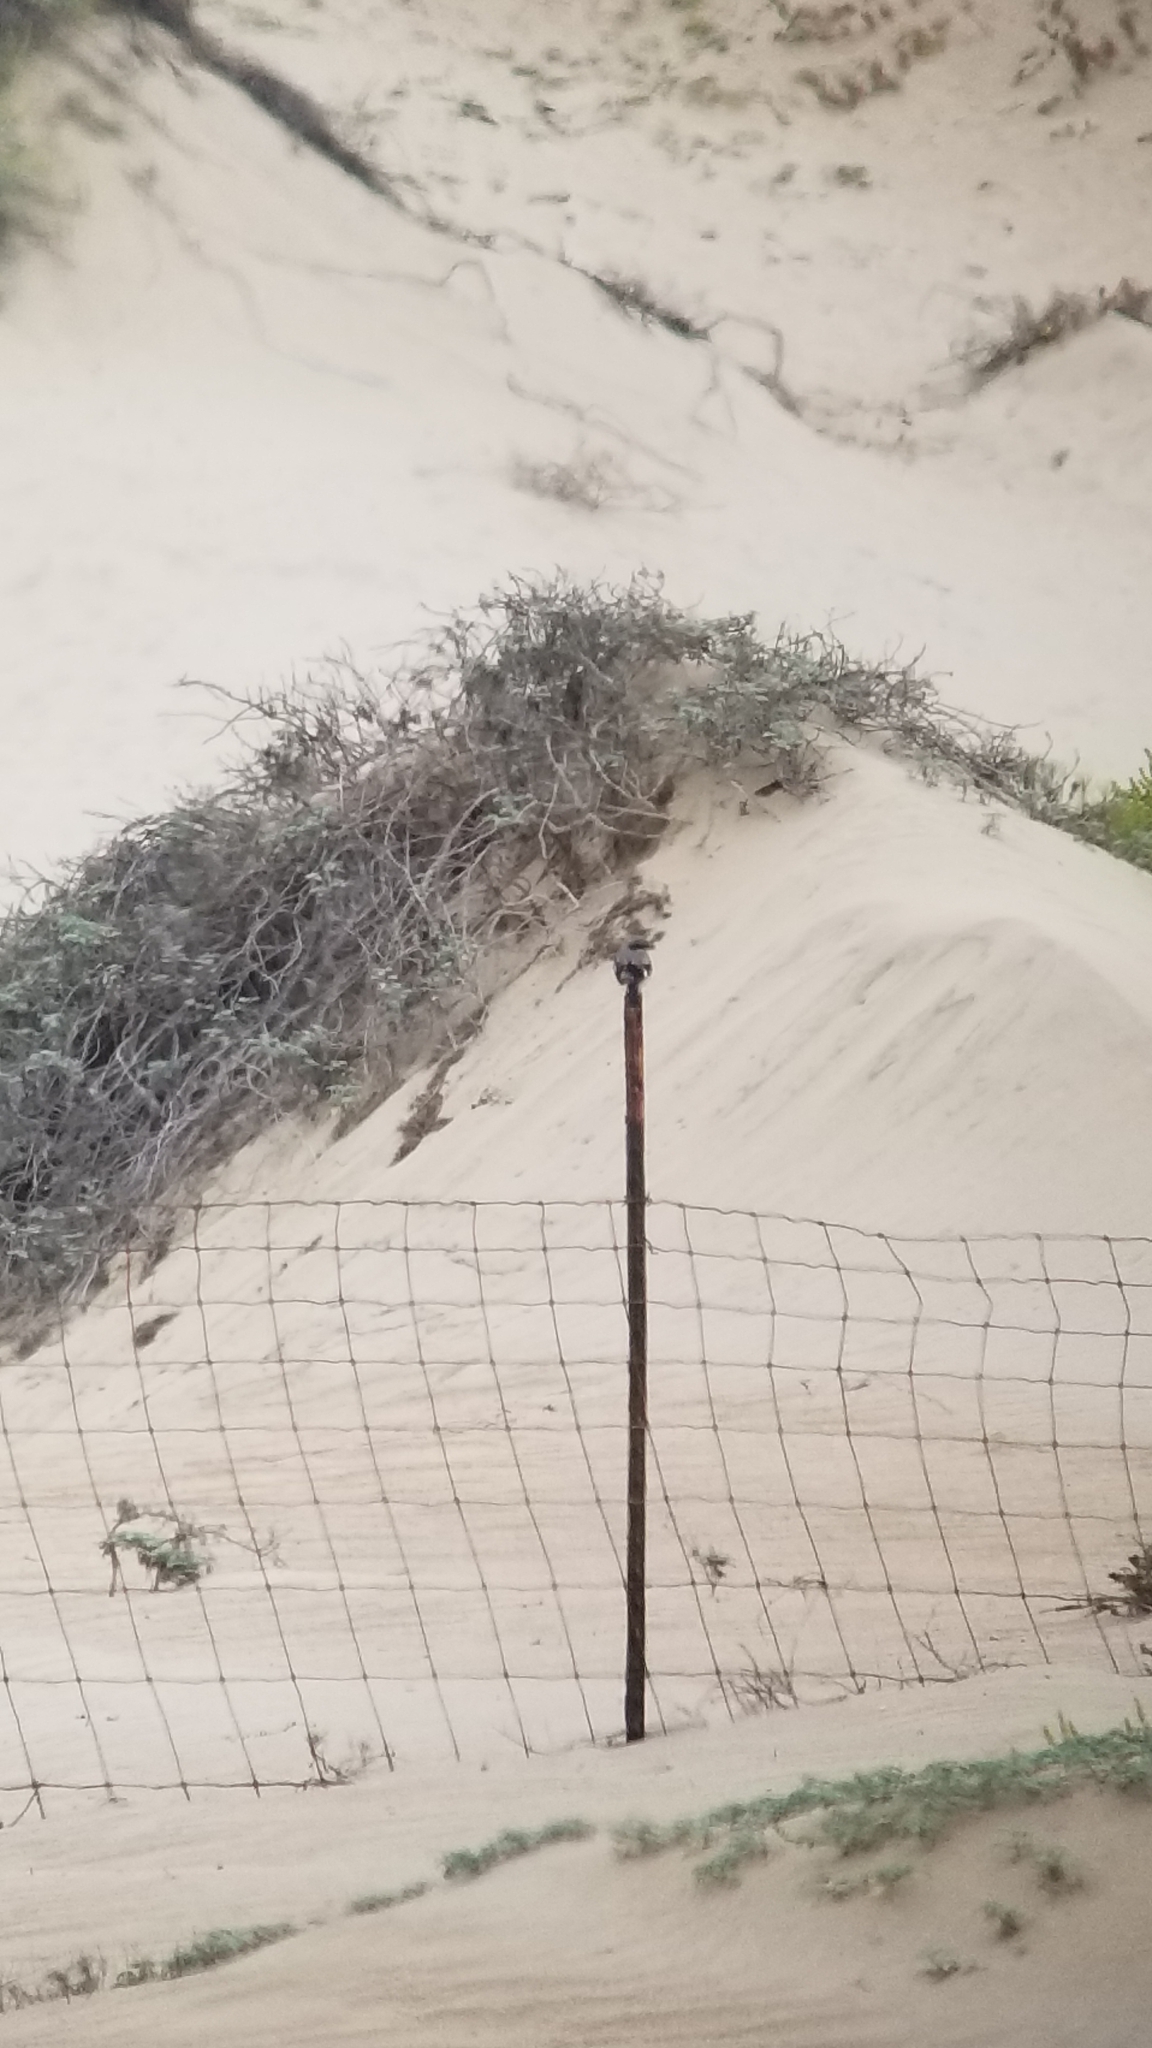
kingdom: Animalia
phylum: Chordata
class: Aves
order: Passeriformes
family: Laniidae
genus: Lanius
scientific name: Lanius ludovicianus
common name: Loggerhead shrike
